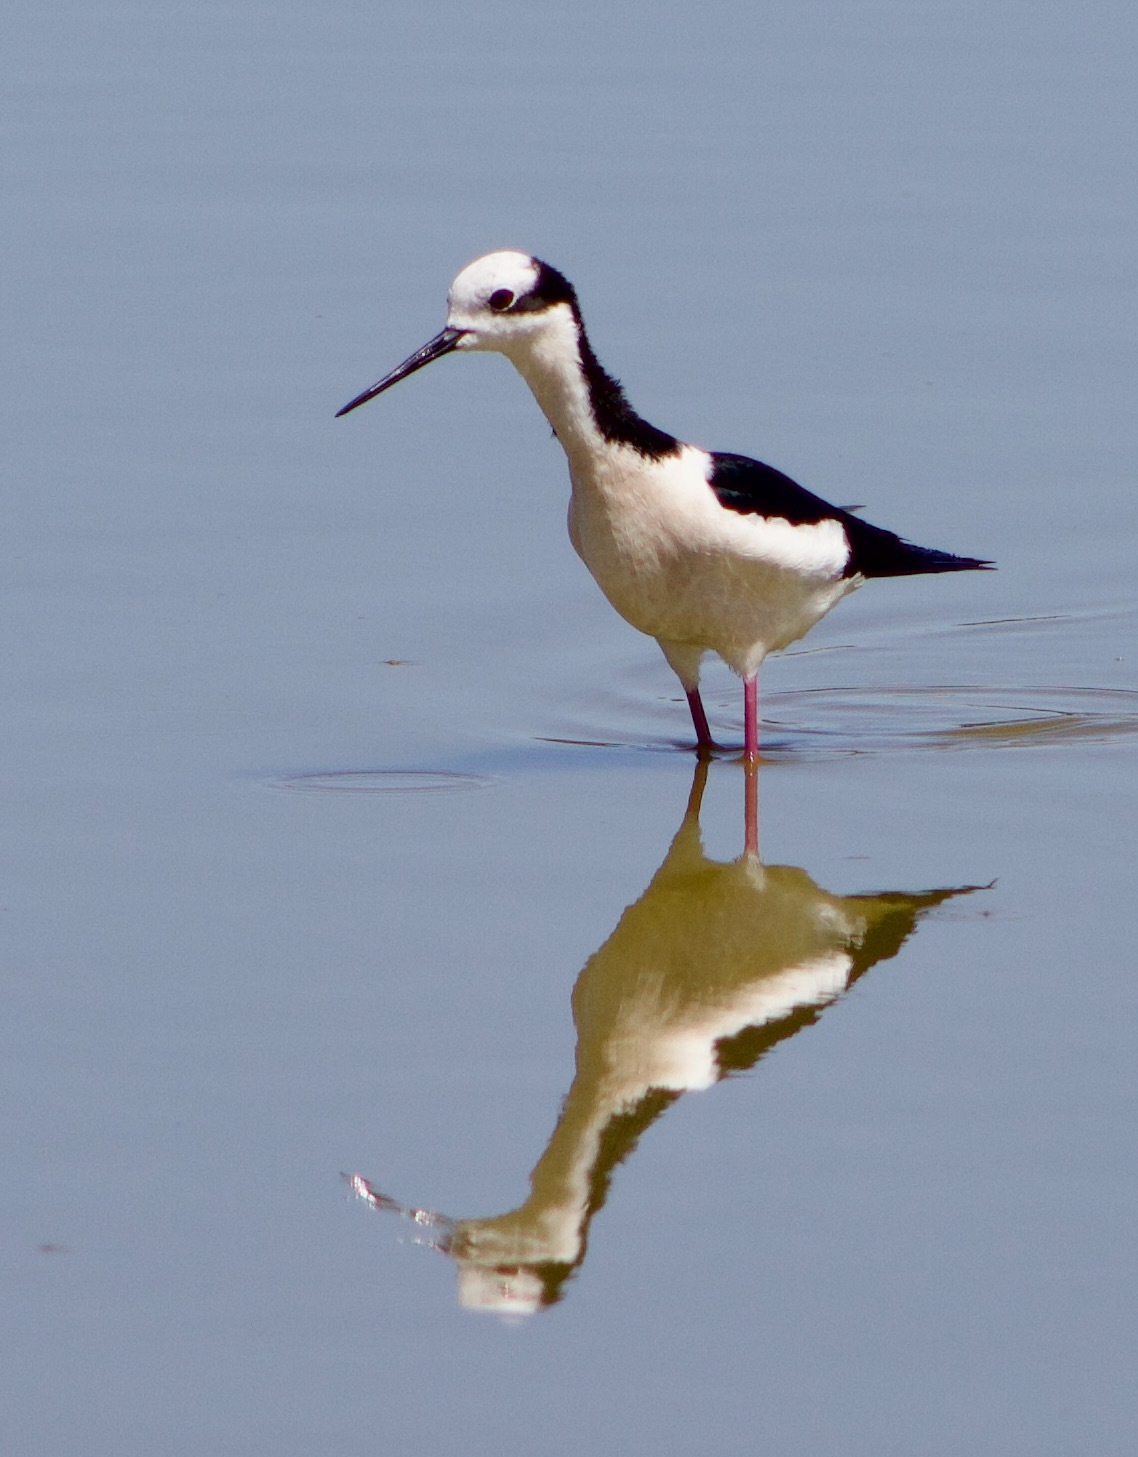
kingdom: Animalia
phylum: Chordata
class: Aves
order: Charadriiformes
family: Recurvirostridae
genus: Himantopus
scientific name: Himantopus mexicanus
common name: Black-necked stilt
